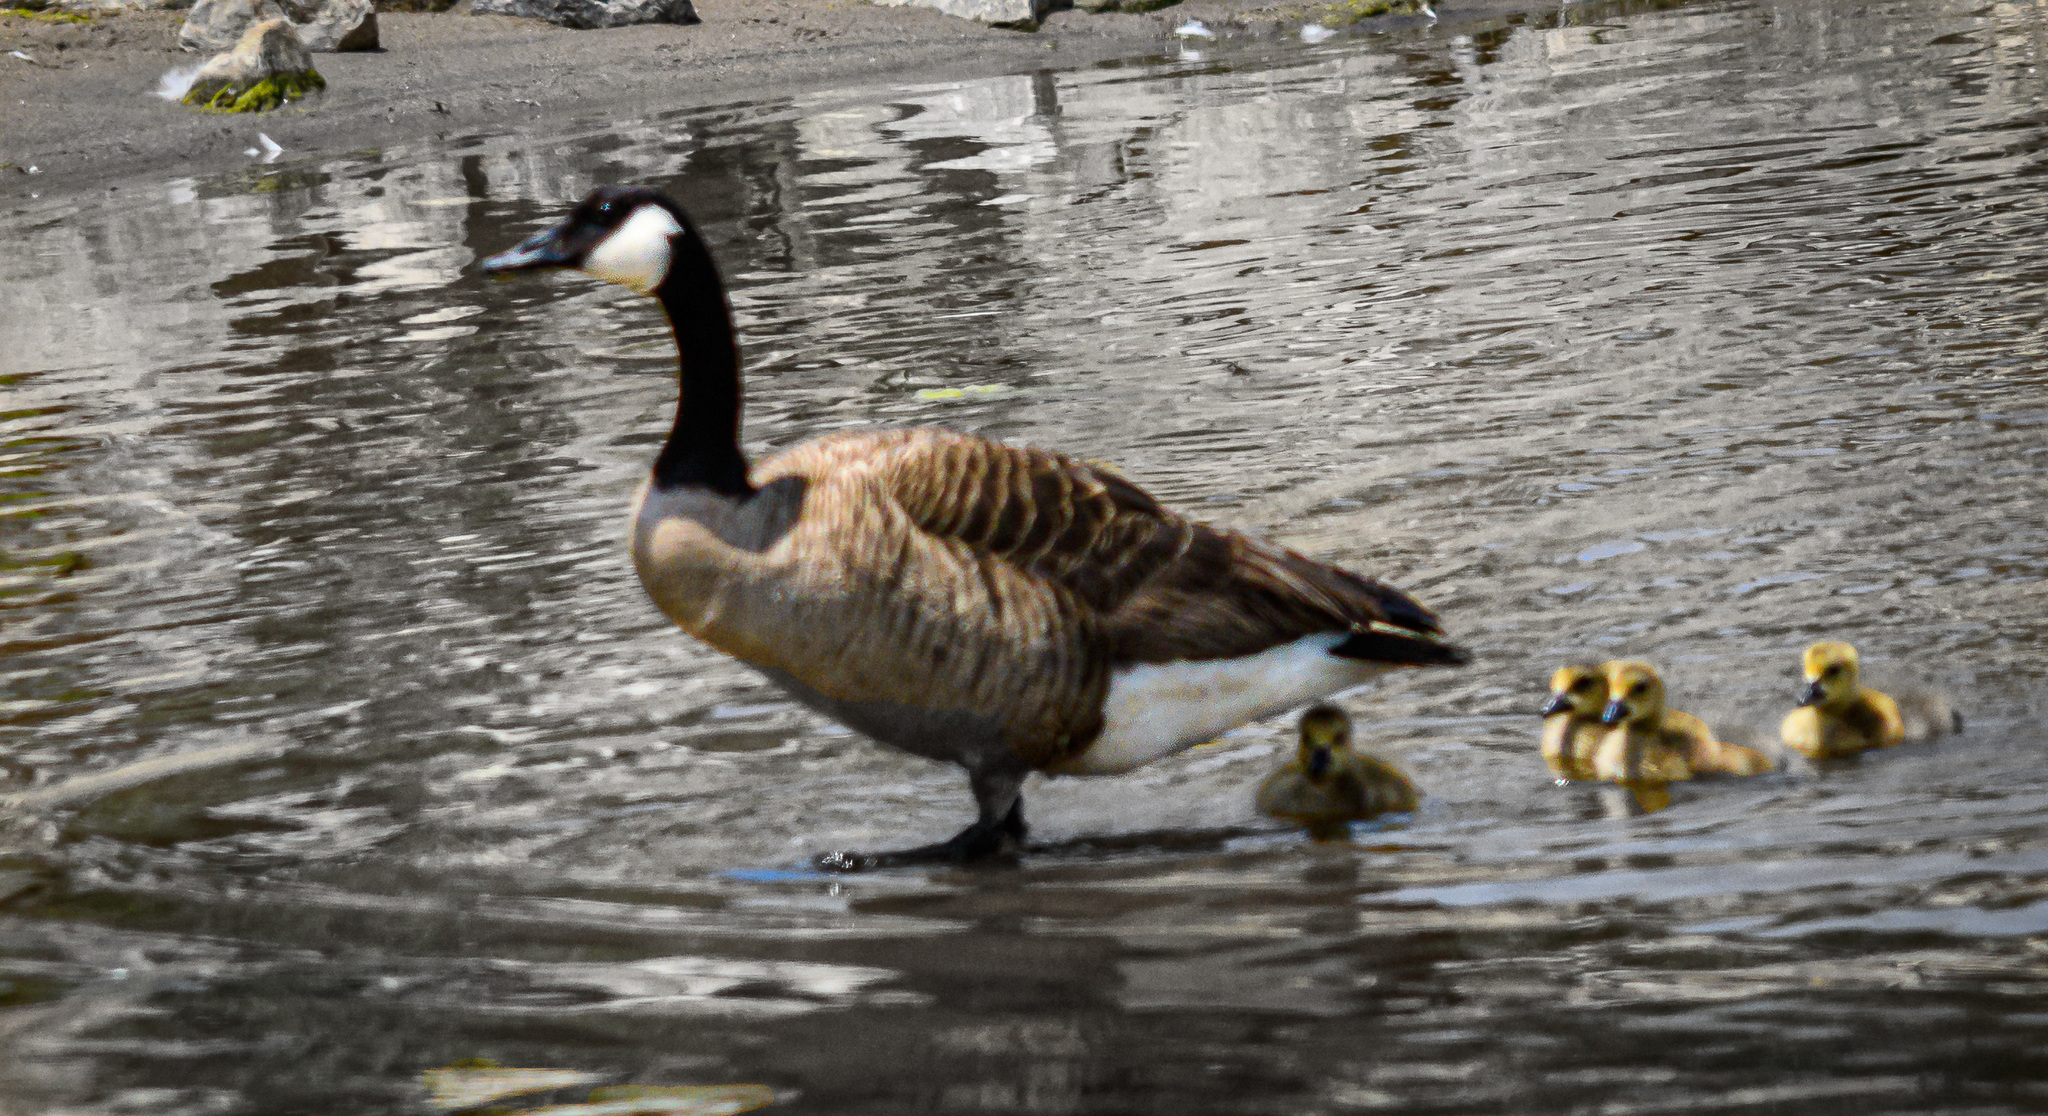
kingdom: Animalia
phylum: Chordata
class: Aves
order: Anseriformes
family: Anatidae
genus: Branta
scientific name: Branta canadensis
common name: Canada goose
